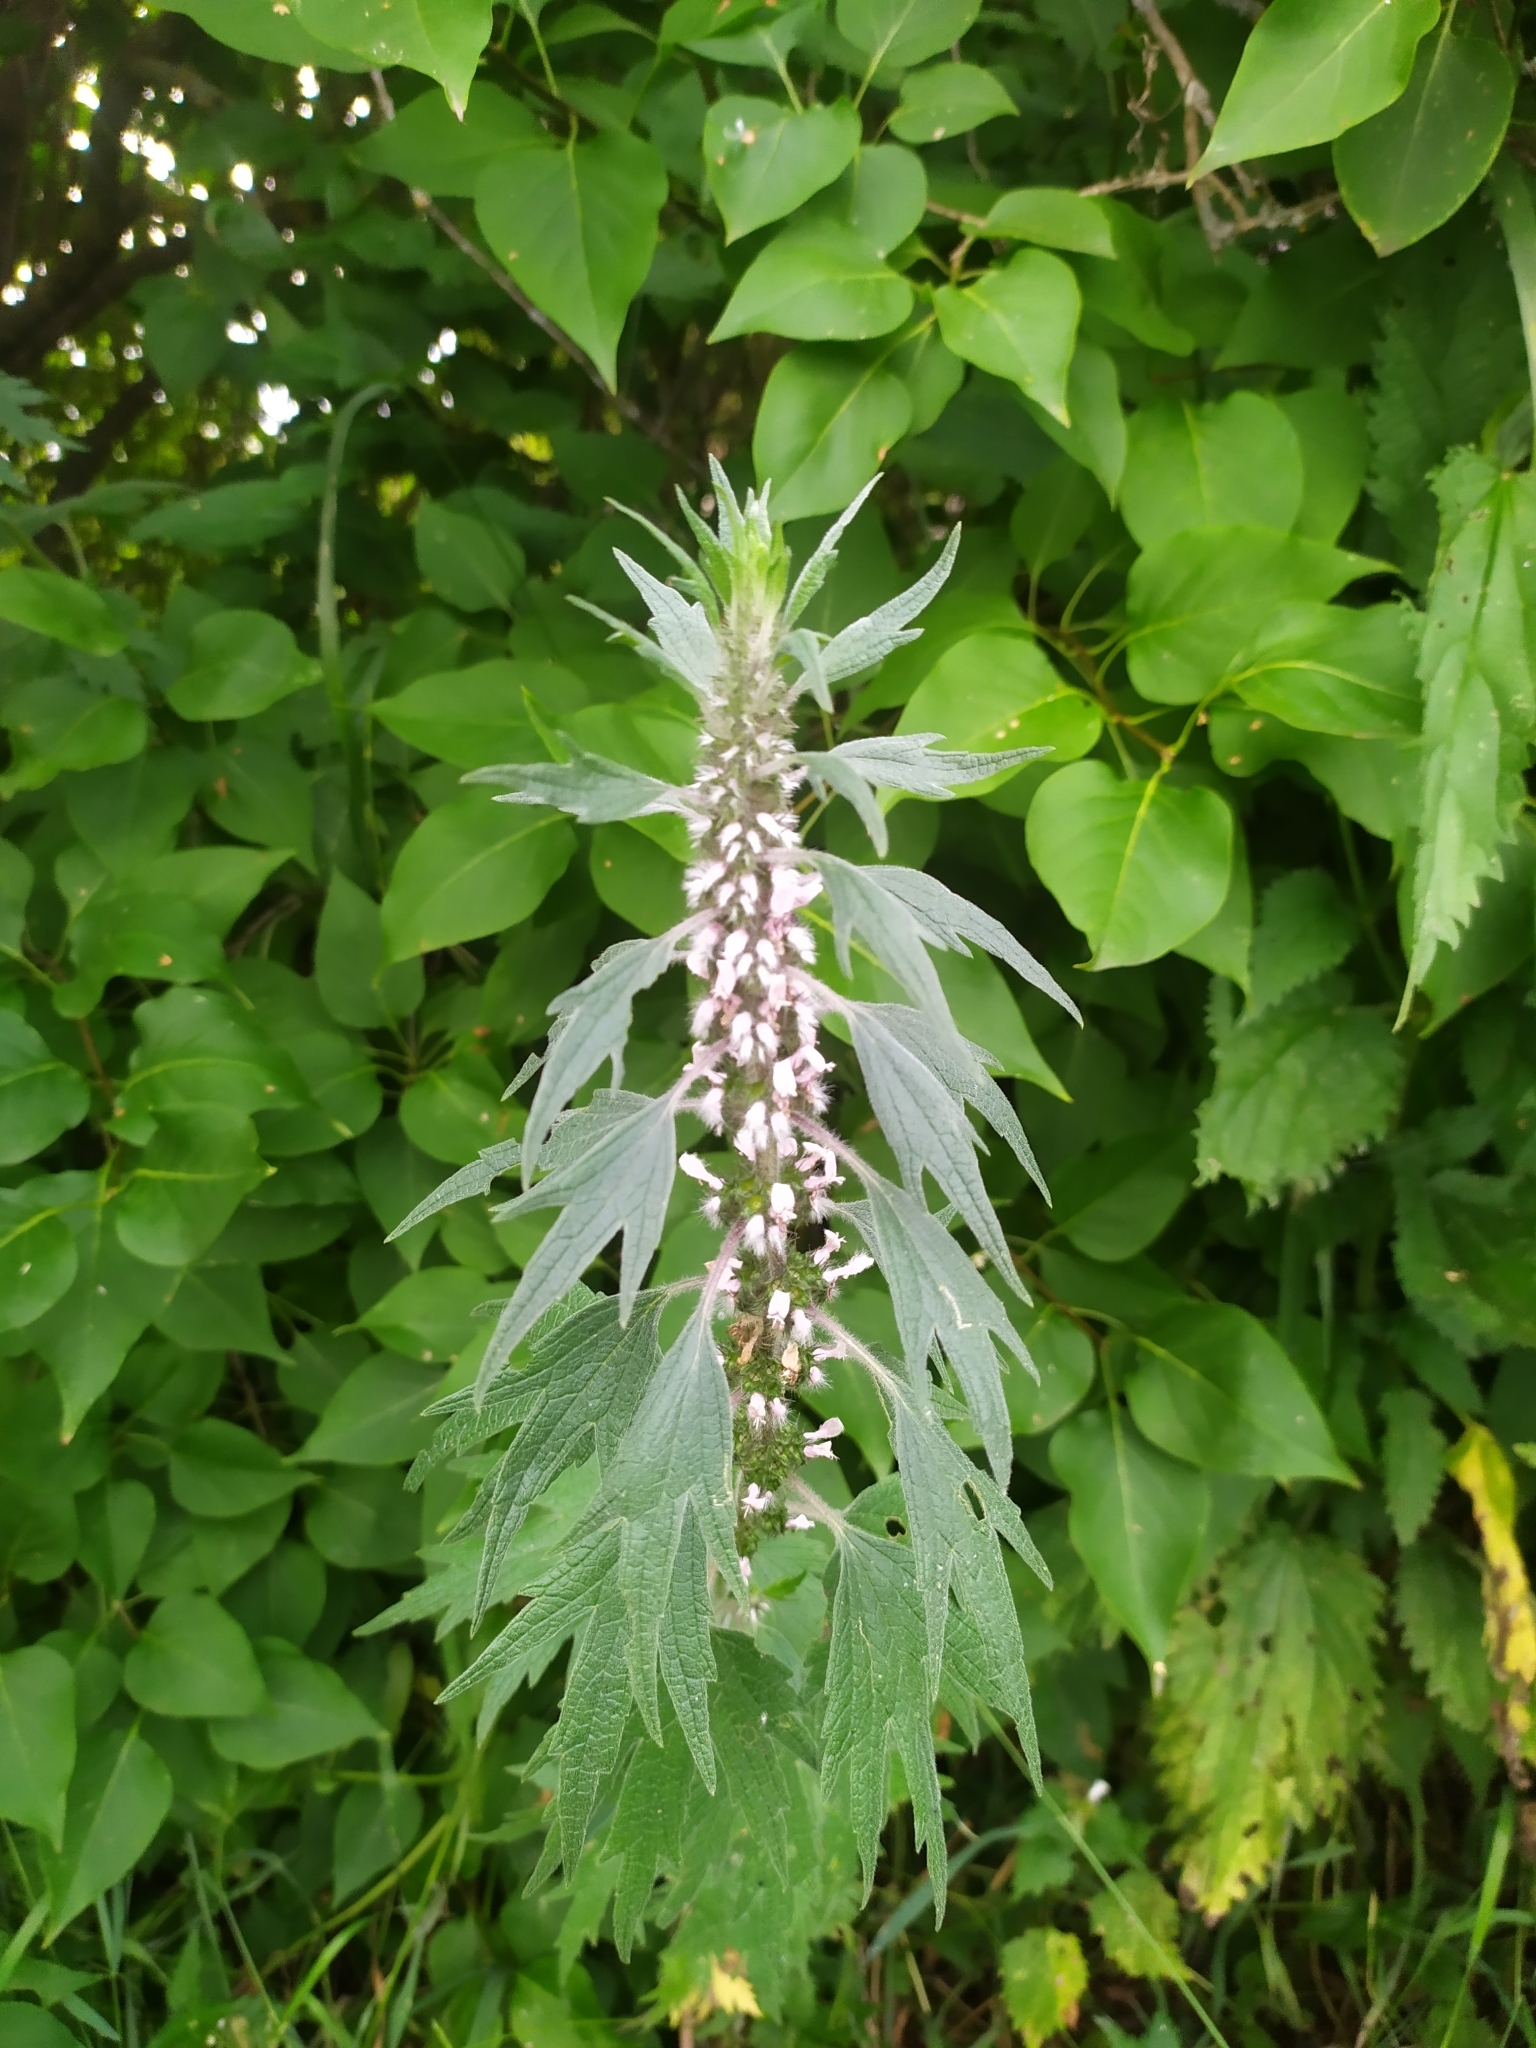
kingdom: Plantae
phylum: Tracheophyta
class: Magnoliopsida
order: Lamiales
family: Lamiaceae
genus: Leonurus
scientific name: Leonurus quinquelobatus
